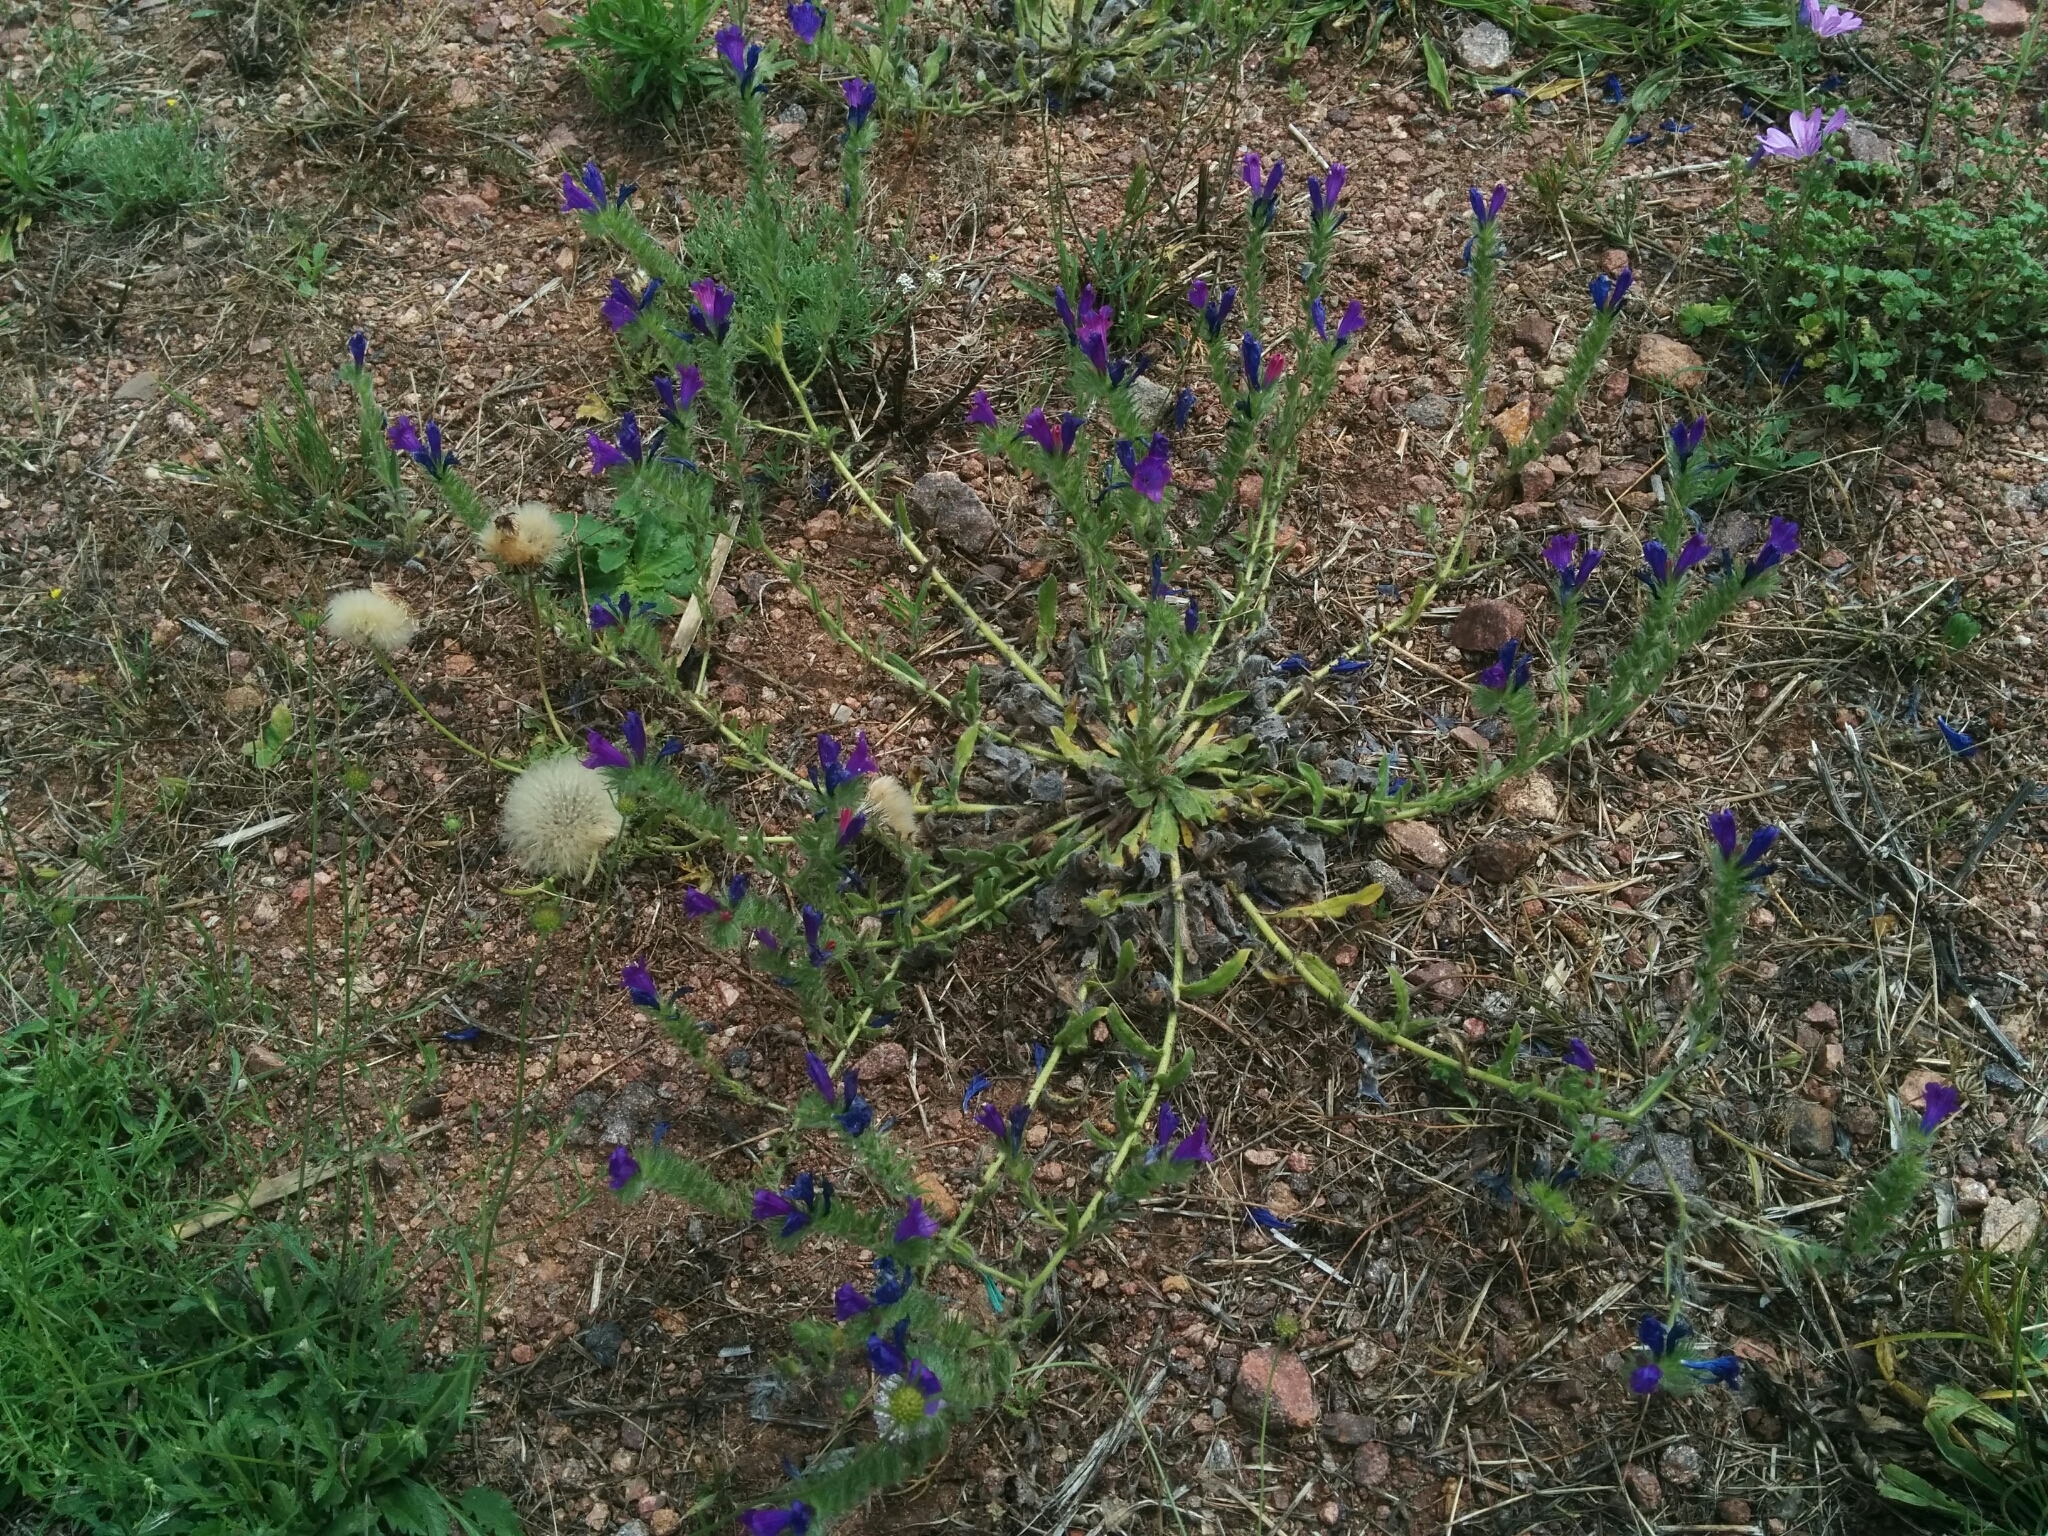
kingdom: Plantae
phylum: Tracheophyta
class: Magnoliopsida
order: Boraginales
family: Boraginaceae
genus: Echium
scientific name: Echium plantagineum
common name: Purple viper's-bugloss
